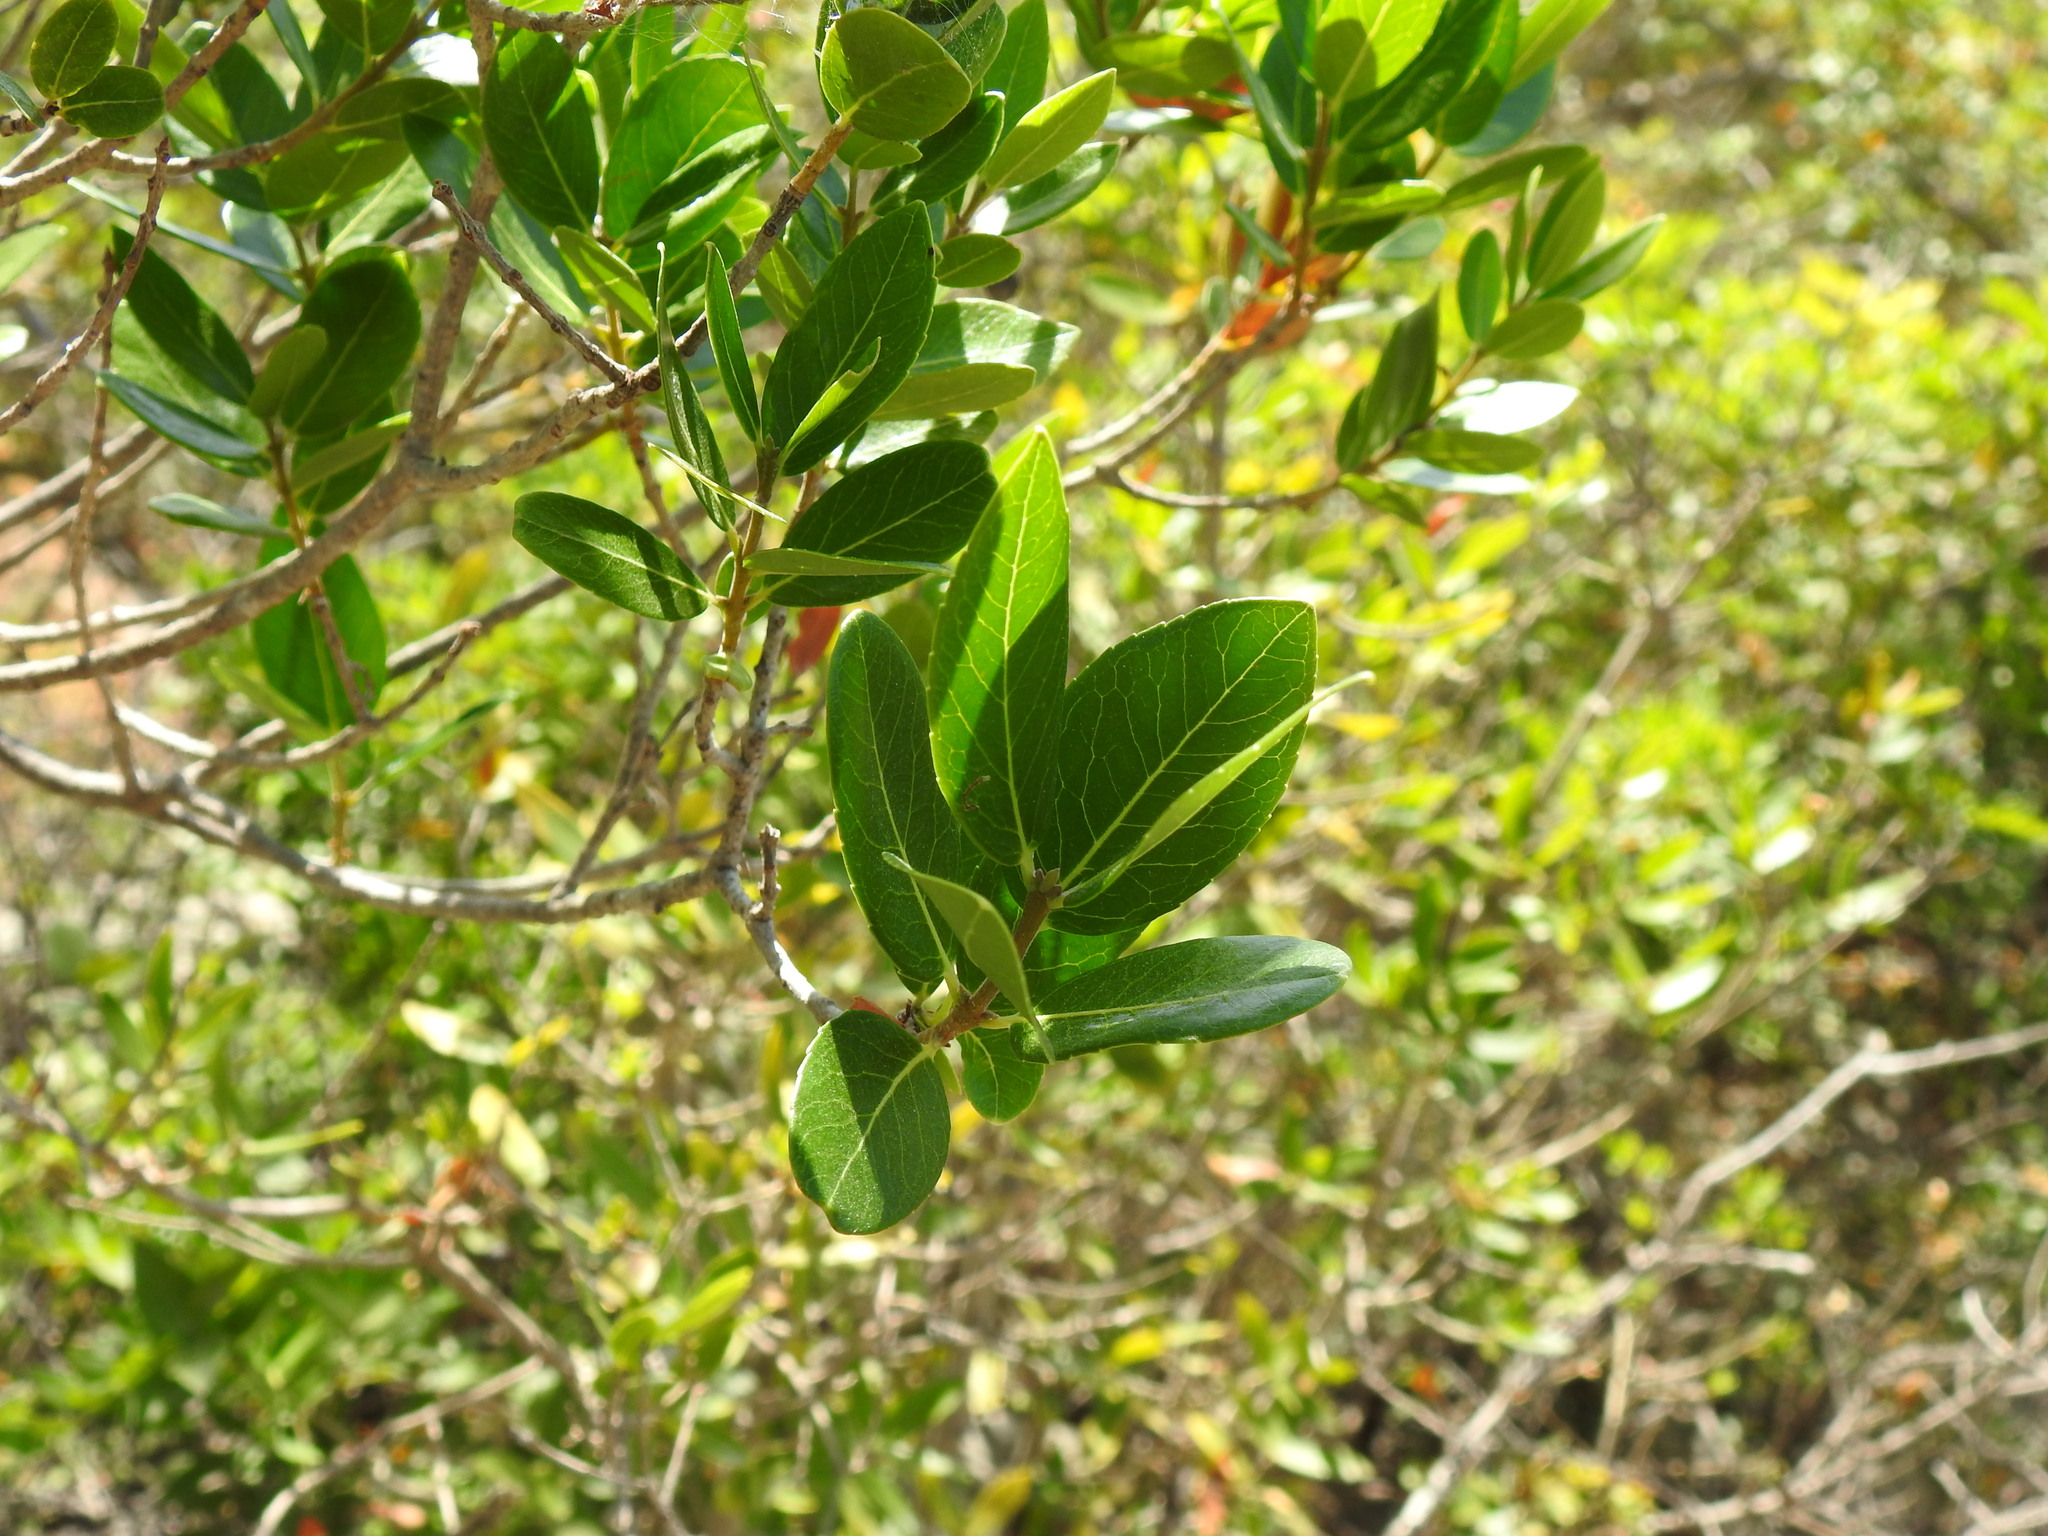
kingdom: Plantae
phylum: Tracheophyta
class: Magnoliopsida
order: Lamiales
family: Oleaceae
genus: Phillyrea
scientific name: Phillyrea latifolia
